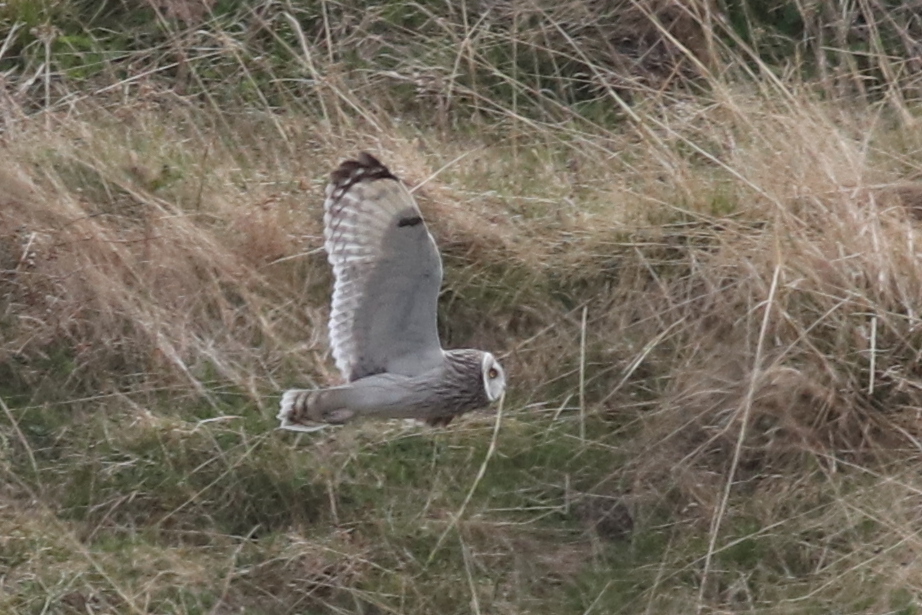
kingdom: Animalia
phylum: Chordata
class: Aves
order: Strigiformes
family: Strigidae
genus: Asio
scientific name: Asio flammeus
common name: Short-eared owl
